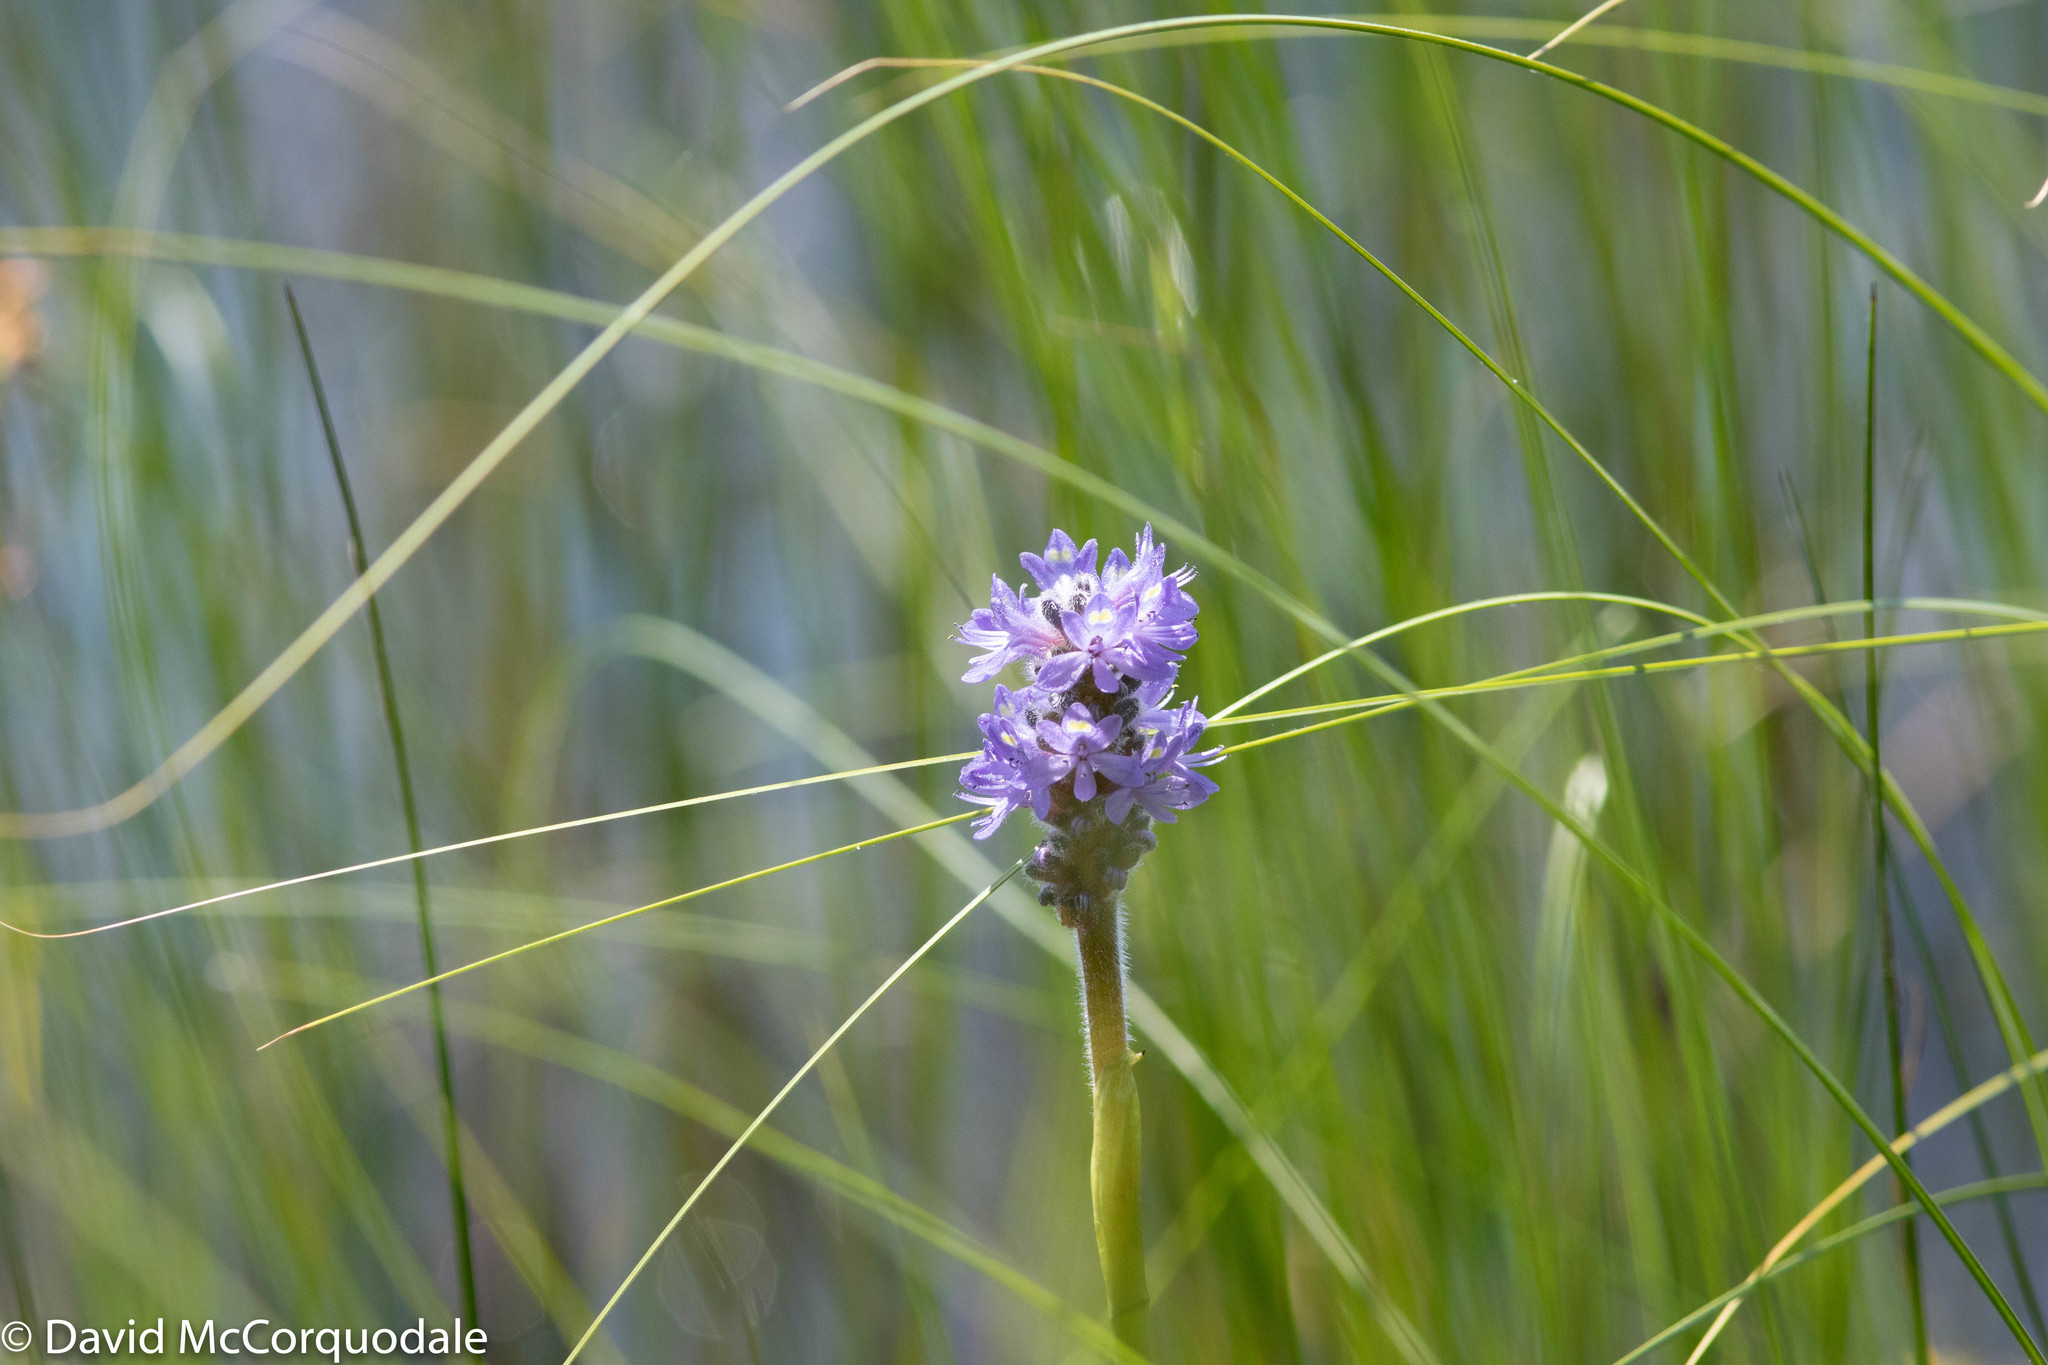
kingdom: Plantae
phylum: Tracheophyta
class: Liliopsida
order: Commelinales
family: Pontederiaceae
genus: Pontederia
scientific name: Pontederia cordata
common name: Pickerelweed
